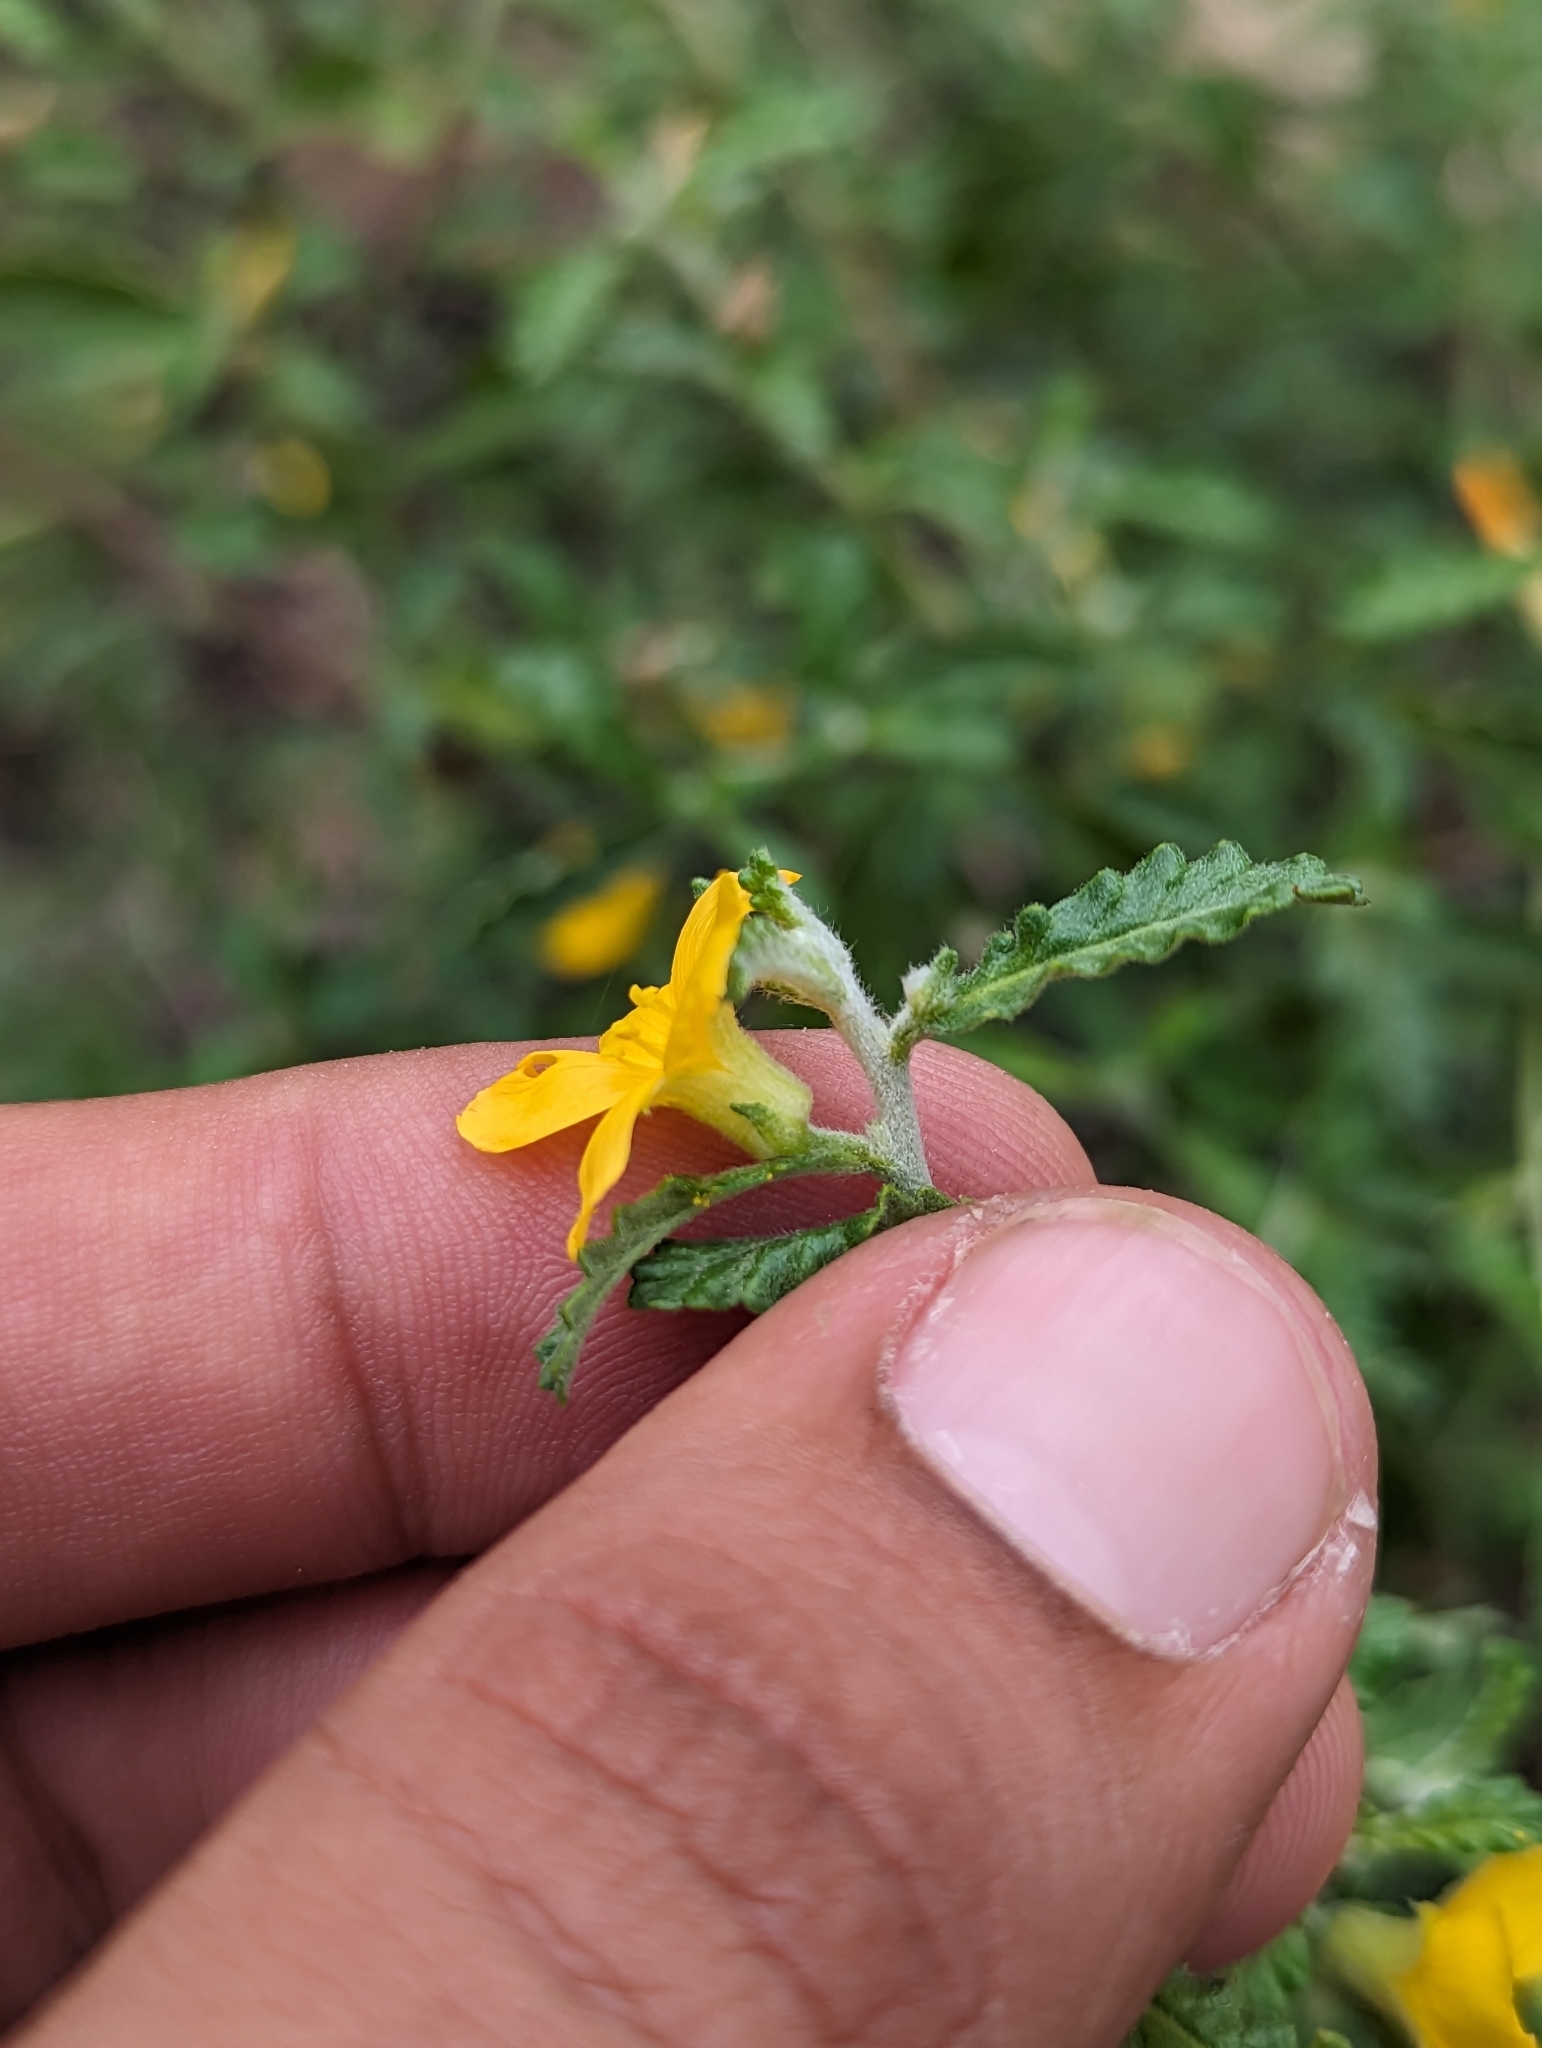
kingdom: Plantae
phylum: Tracheophyta
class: Magnoliopsida
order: Malpighiales
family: Turneraceae
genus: Turnera
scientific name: Turnera diffusa
